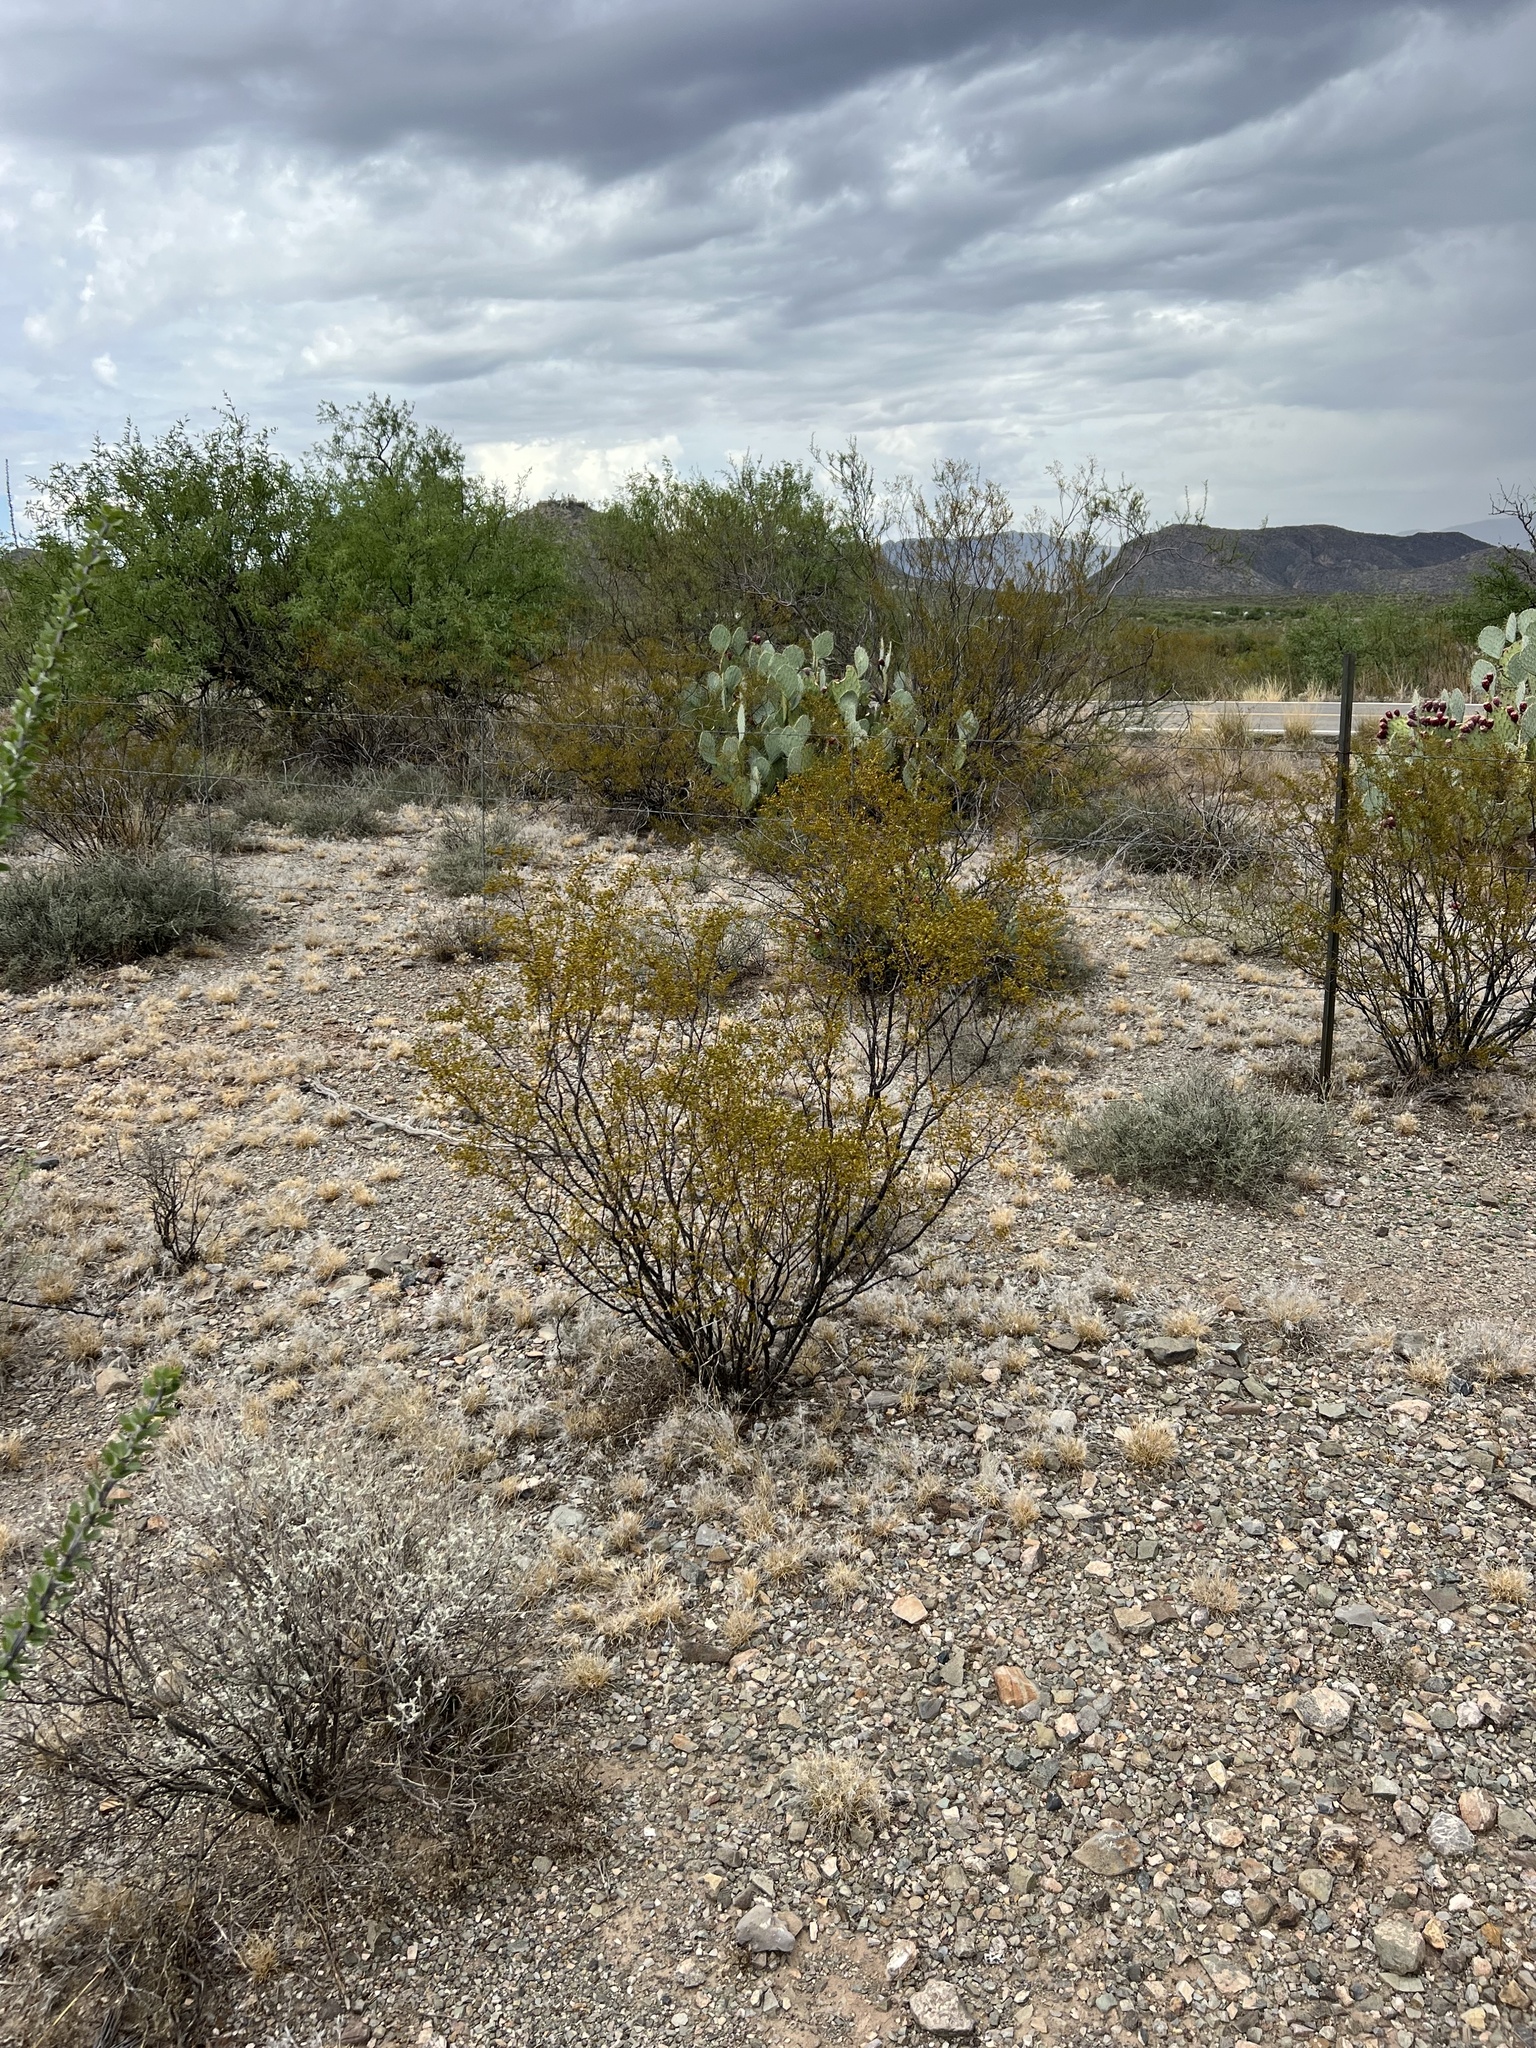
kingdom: Plantae
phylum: Tracheophyta
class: Magnoliopsida
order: Zygophyllales
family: Zygophyllaceae
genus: Larrea
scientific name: Larrea tridentata
